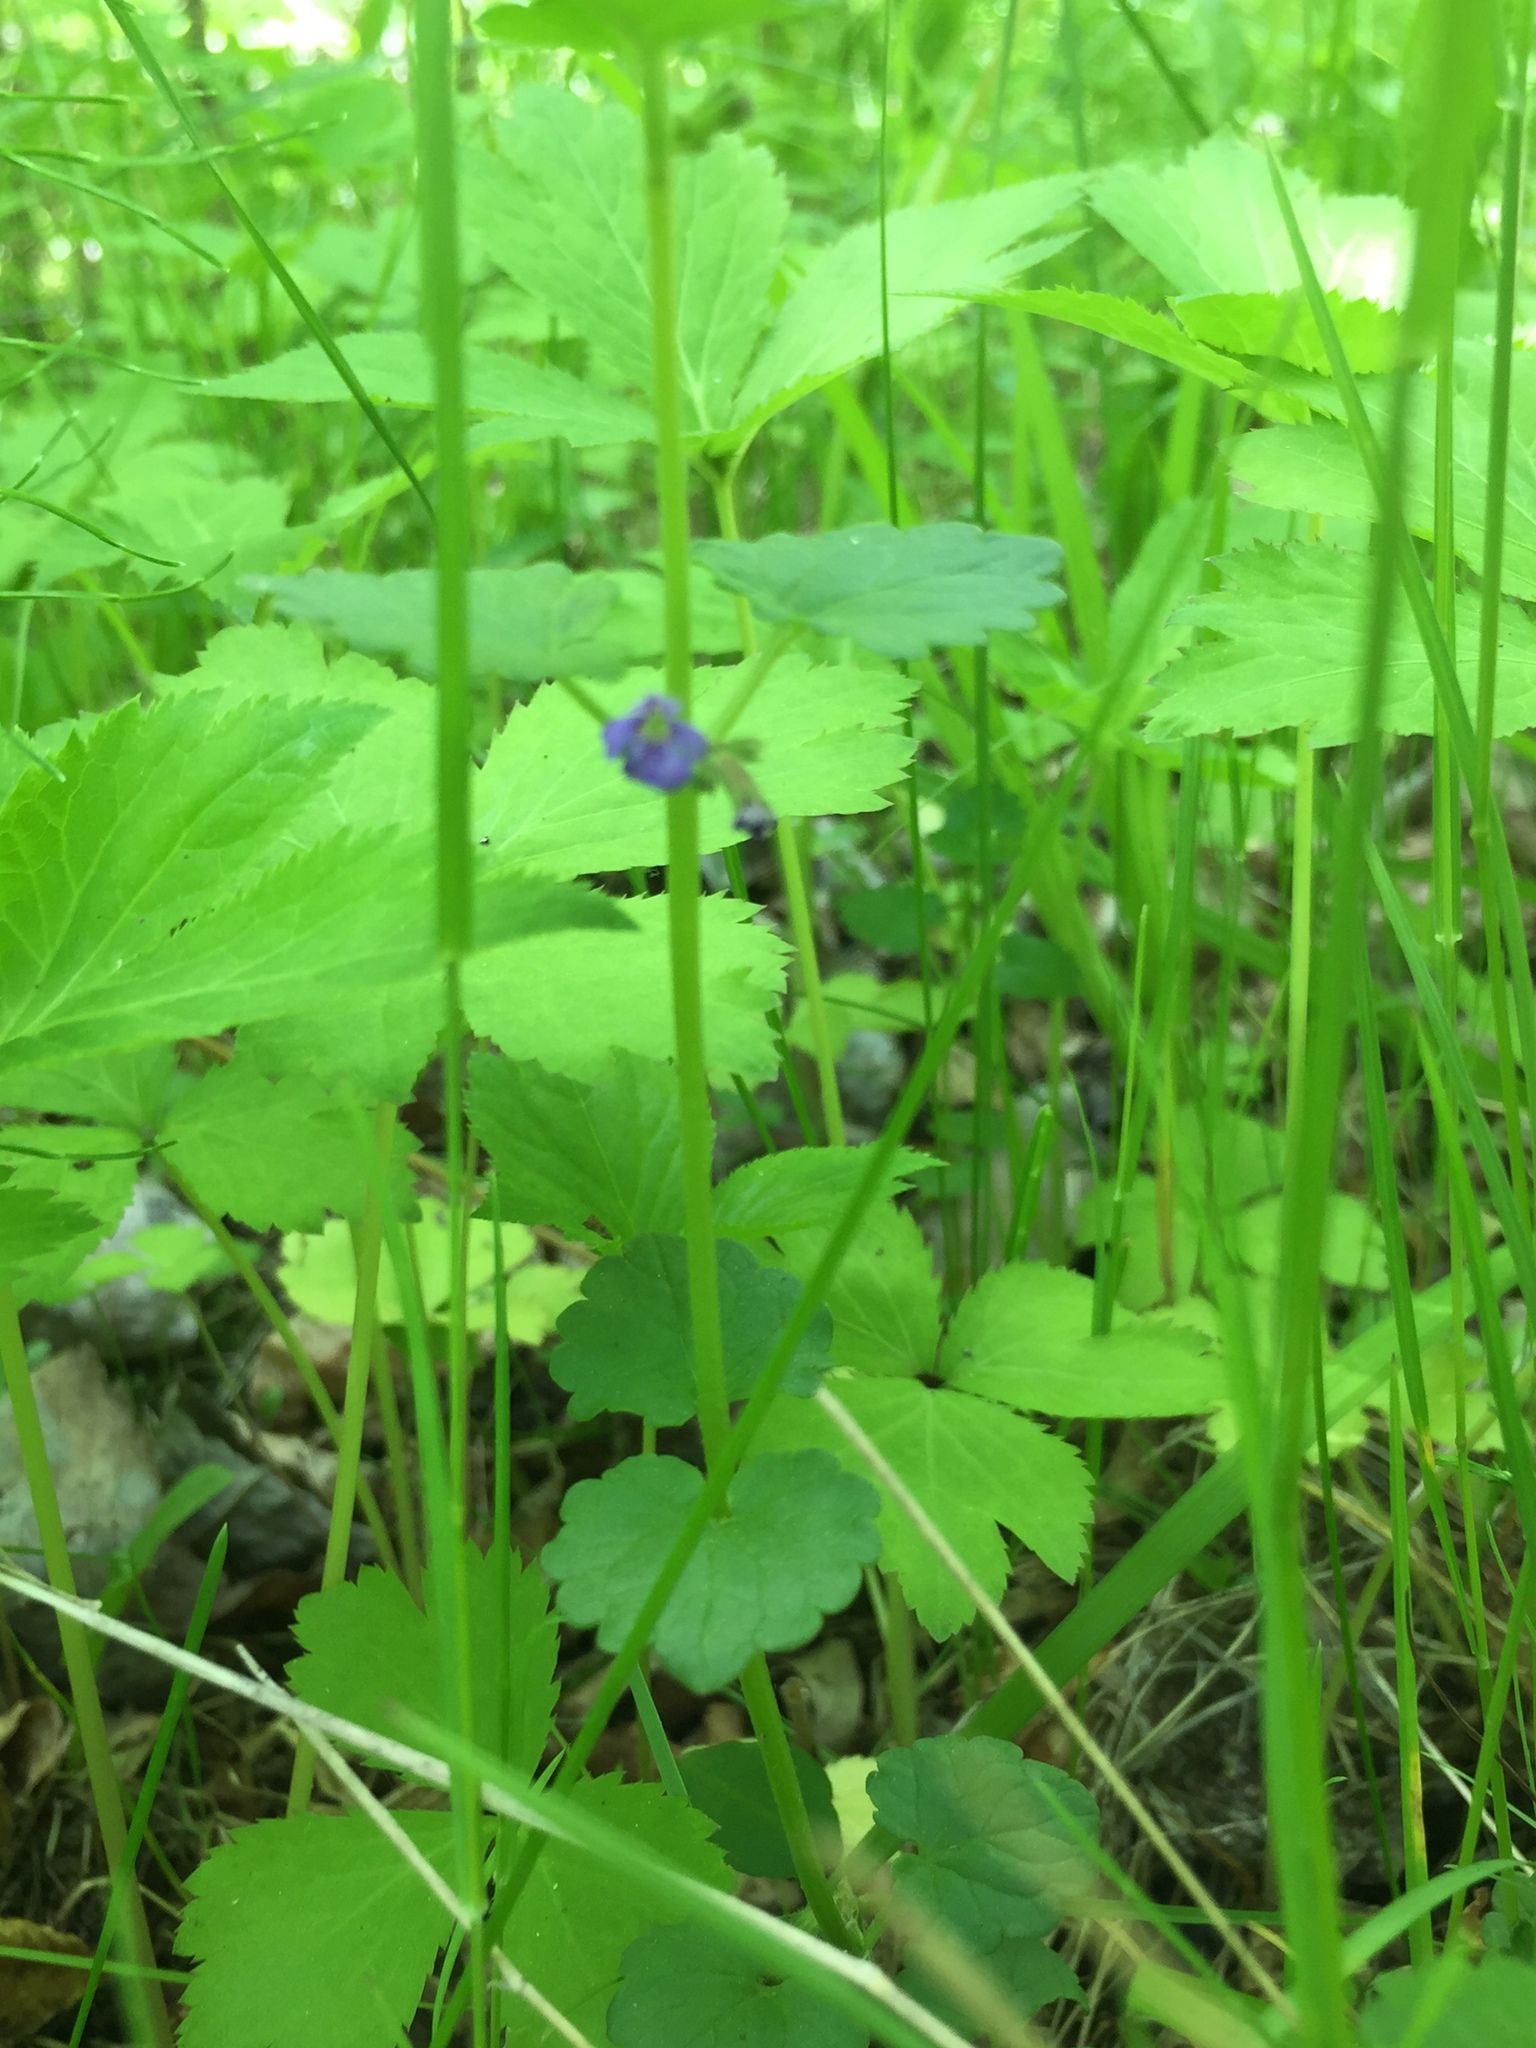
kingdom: Plantae
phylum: Tracheophyta
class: Magnoliopsida
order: Lamiales
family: Lamiaceae
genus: Glechoma
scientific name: Glechoma hederacea
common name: Ground ivy
